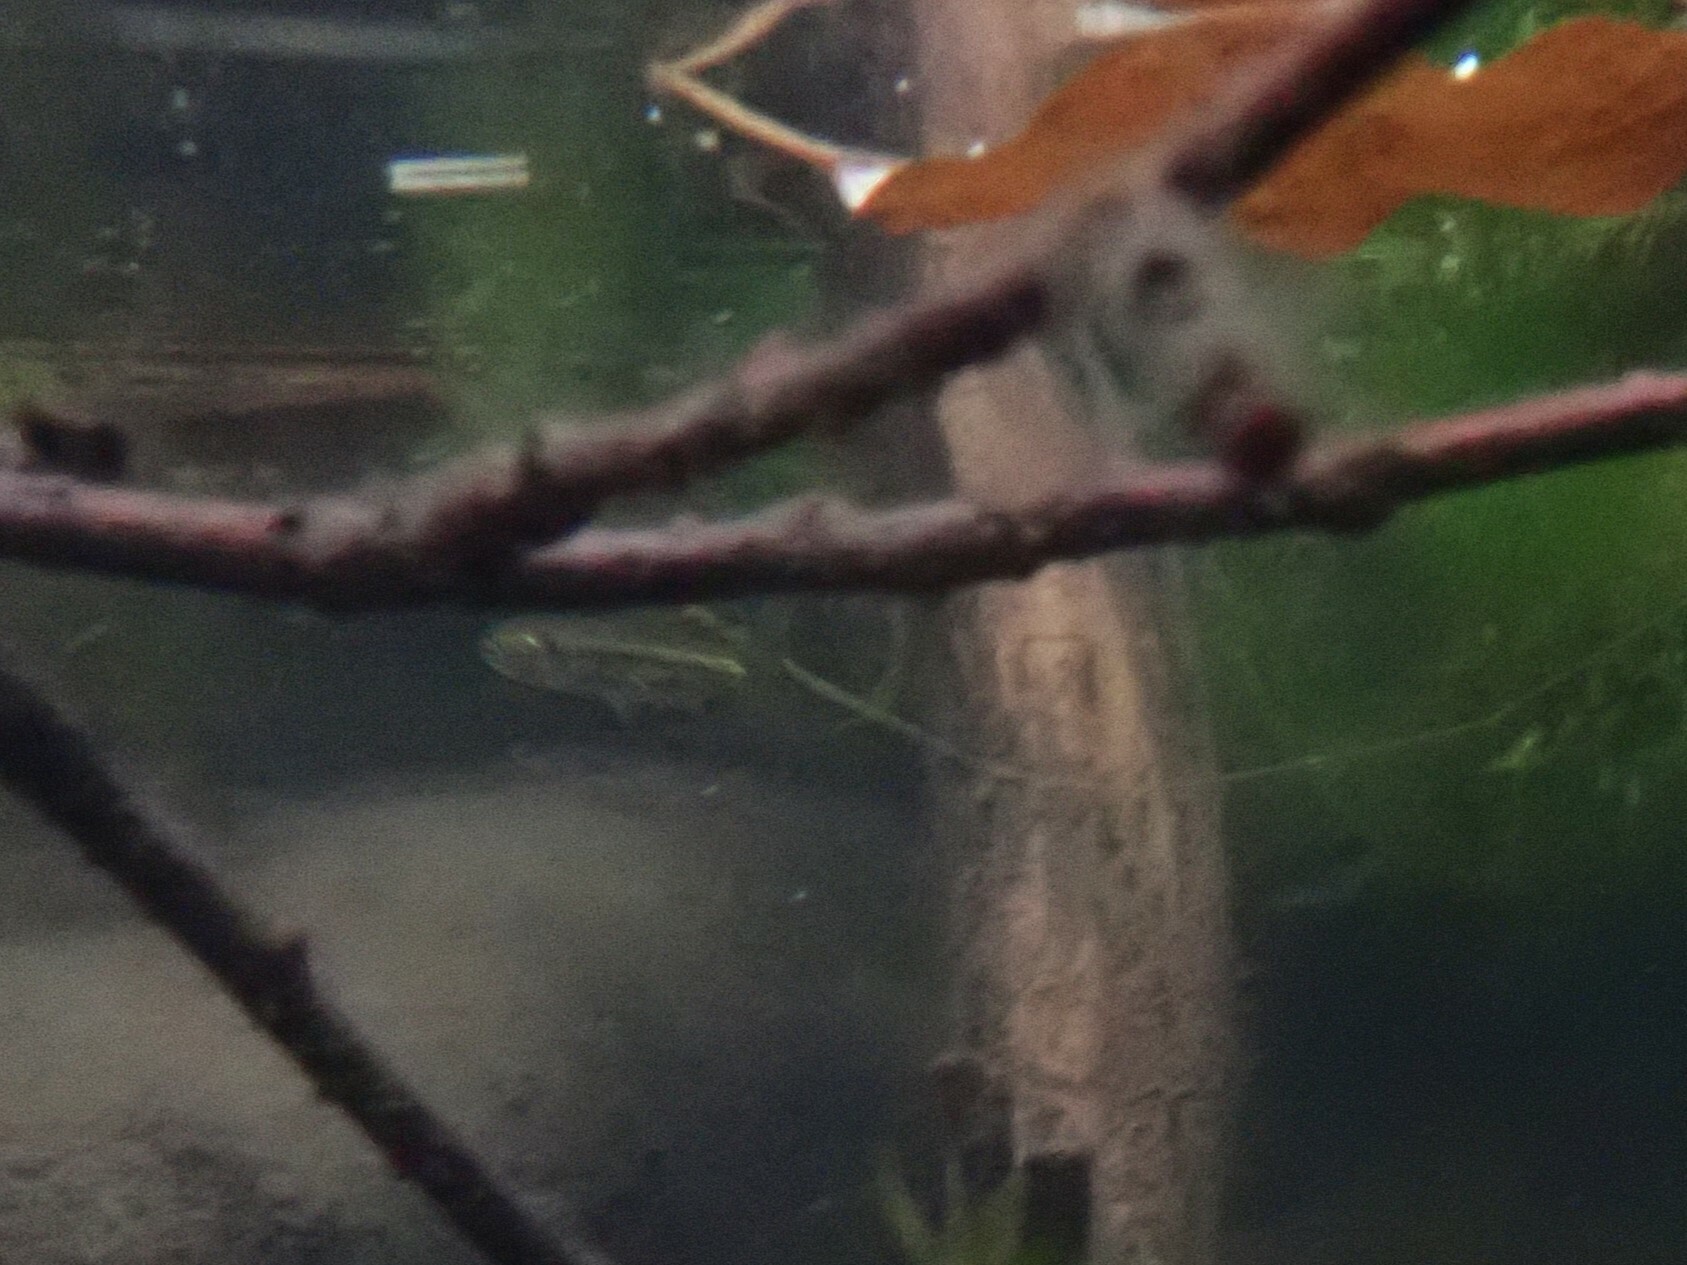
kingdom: Animalia
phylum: Chordata
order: Cypriniformes
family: Cyprinidae
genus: Richardsonius
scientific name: Richardsonius balteatus
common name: Redside shiner
